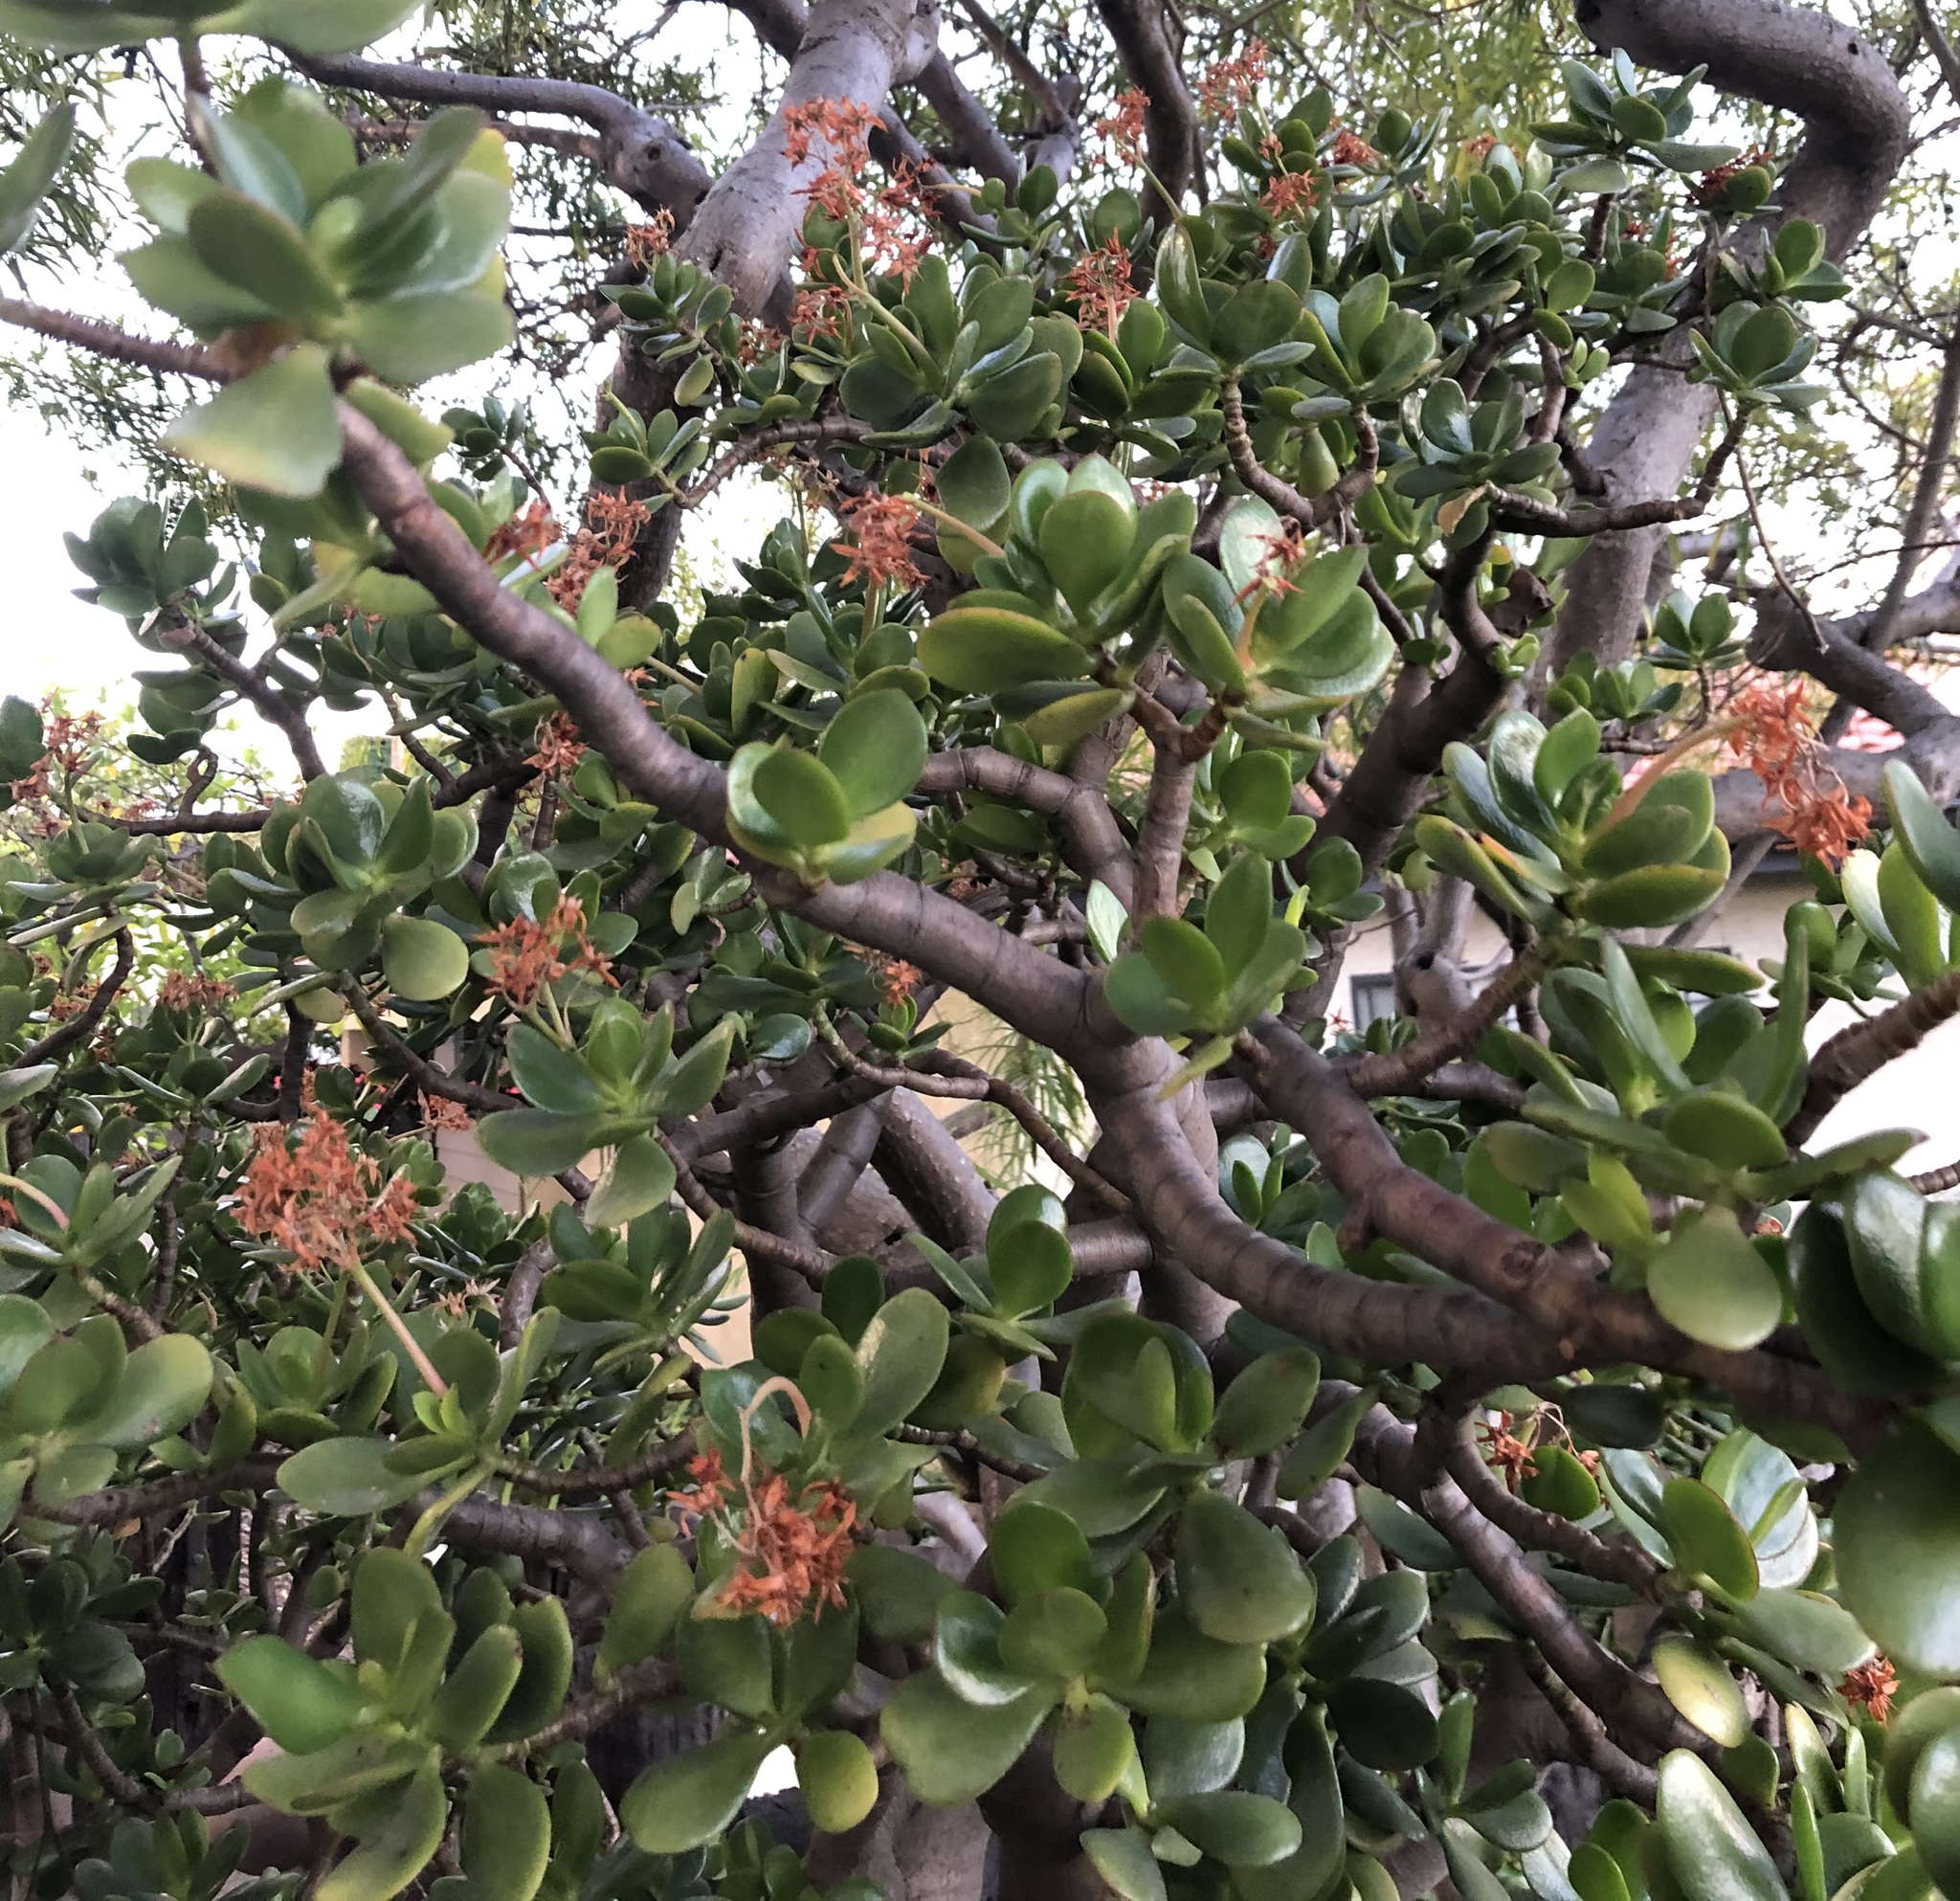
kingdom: Plantae
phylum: Tracheophyta
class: Magnoliopsida
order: Saxifragales
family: Crassulaceae
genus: Crassula
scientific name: Crassula ovata
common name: Jade plant
